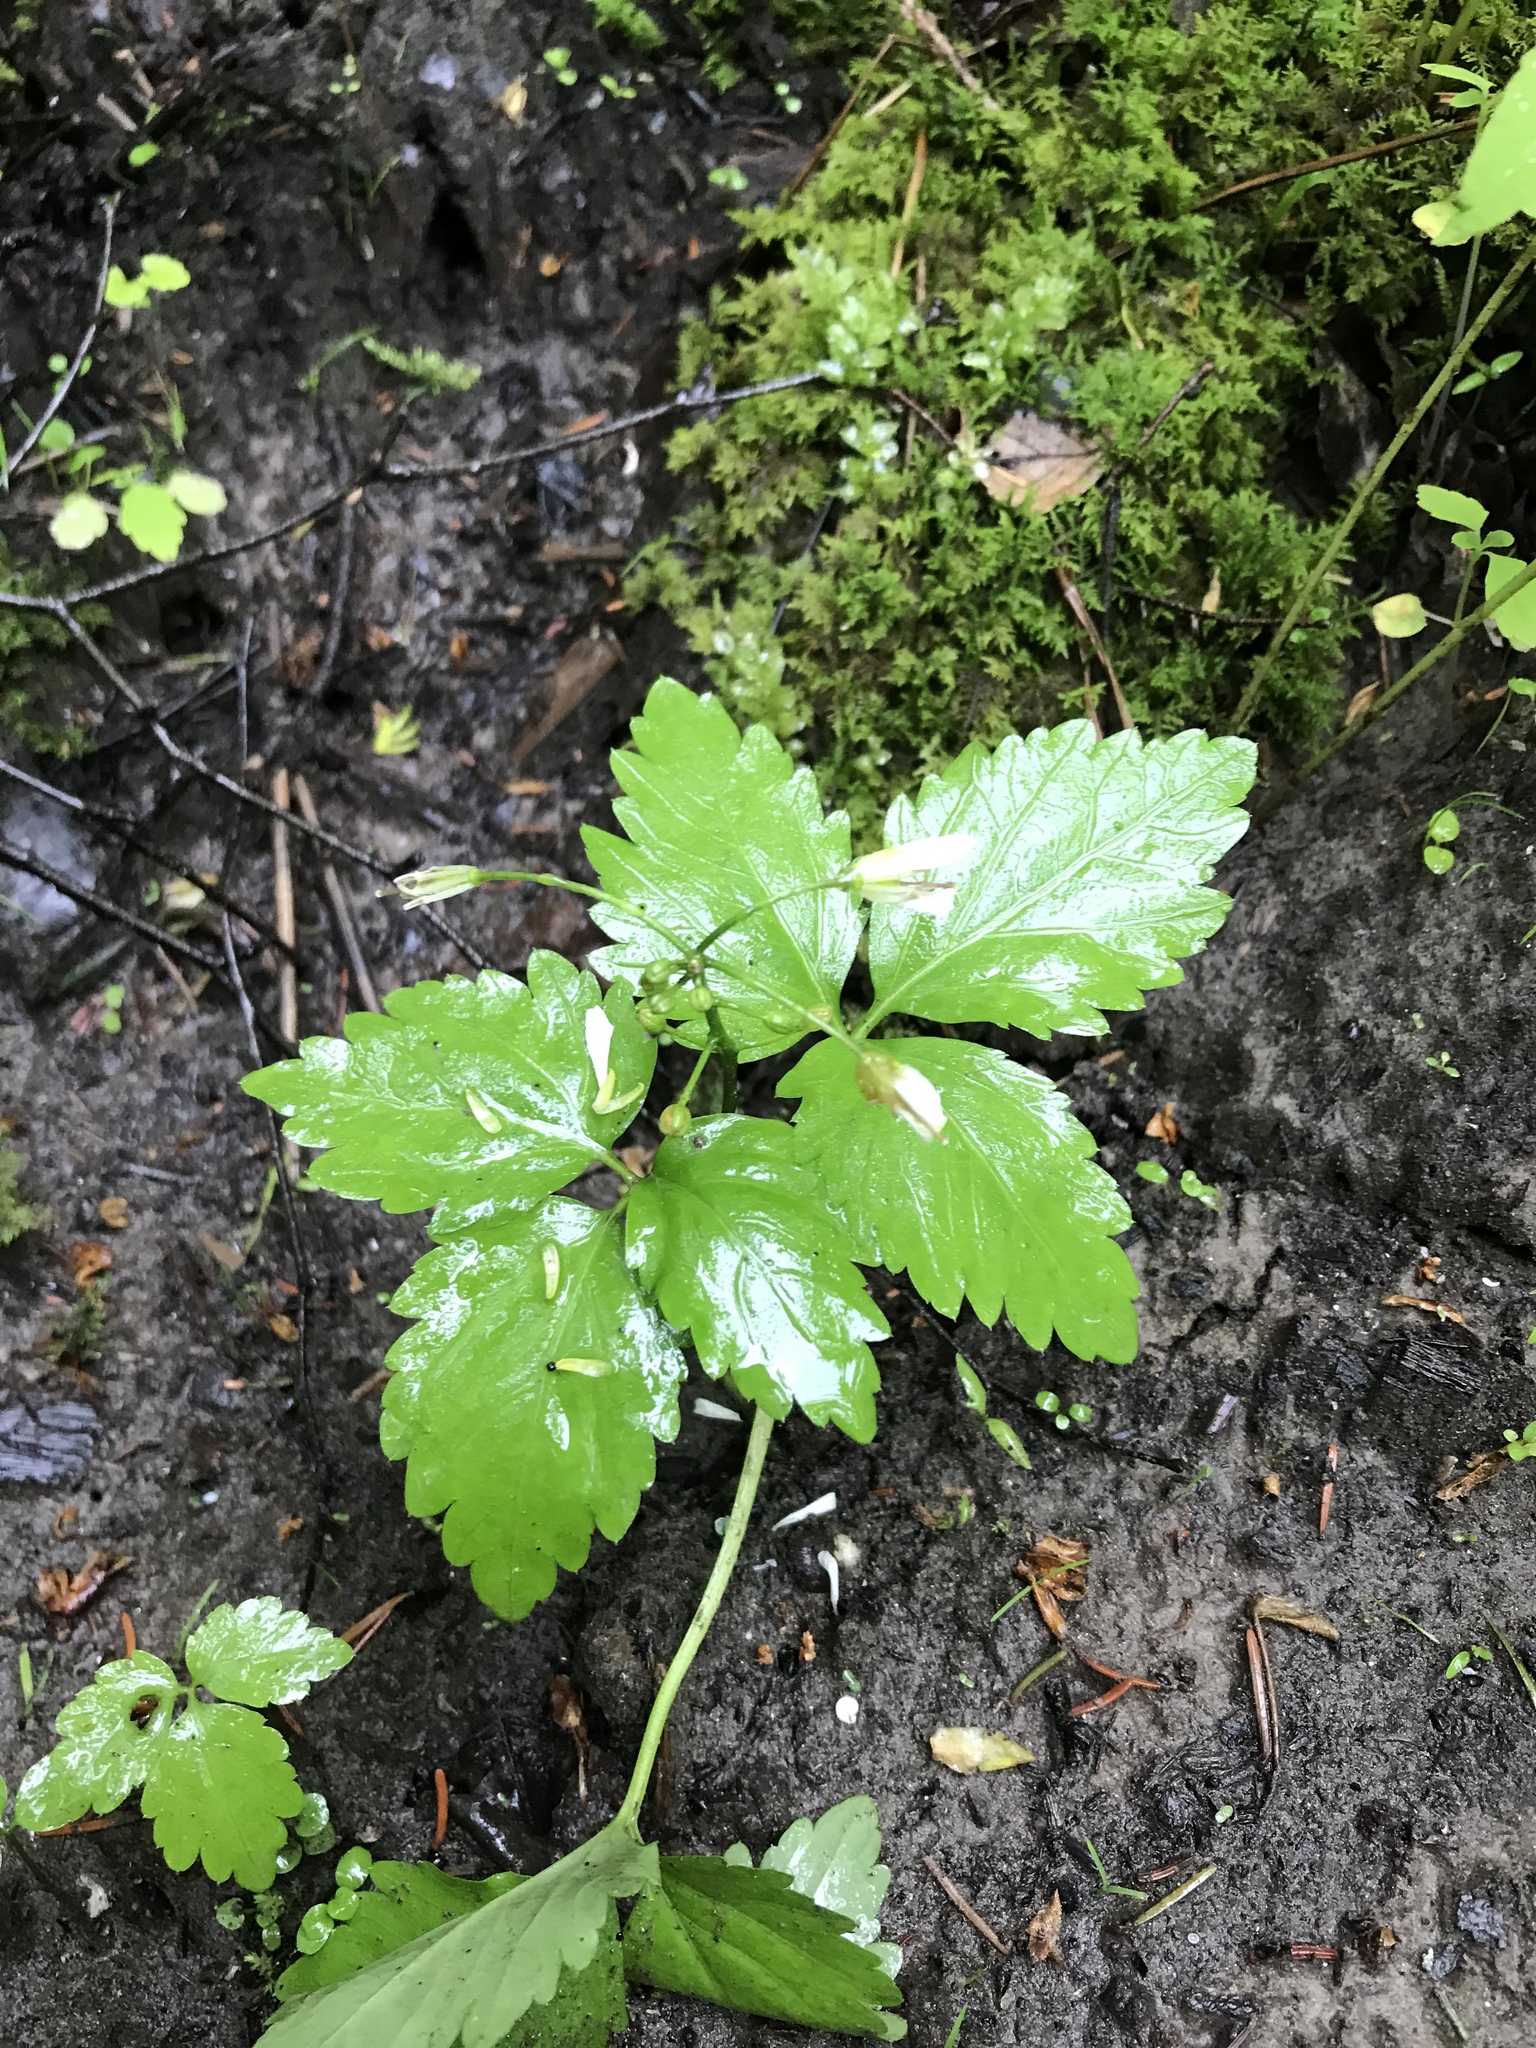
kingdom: Plantae
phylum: Tracheophyta
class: Magnoliopsida
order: Brassicales
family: Brassicaceae
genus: Cardamine
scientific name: Cardamine diphylla
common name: Broad-leaved toothwort
